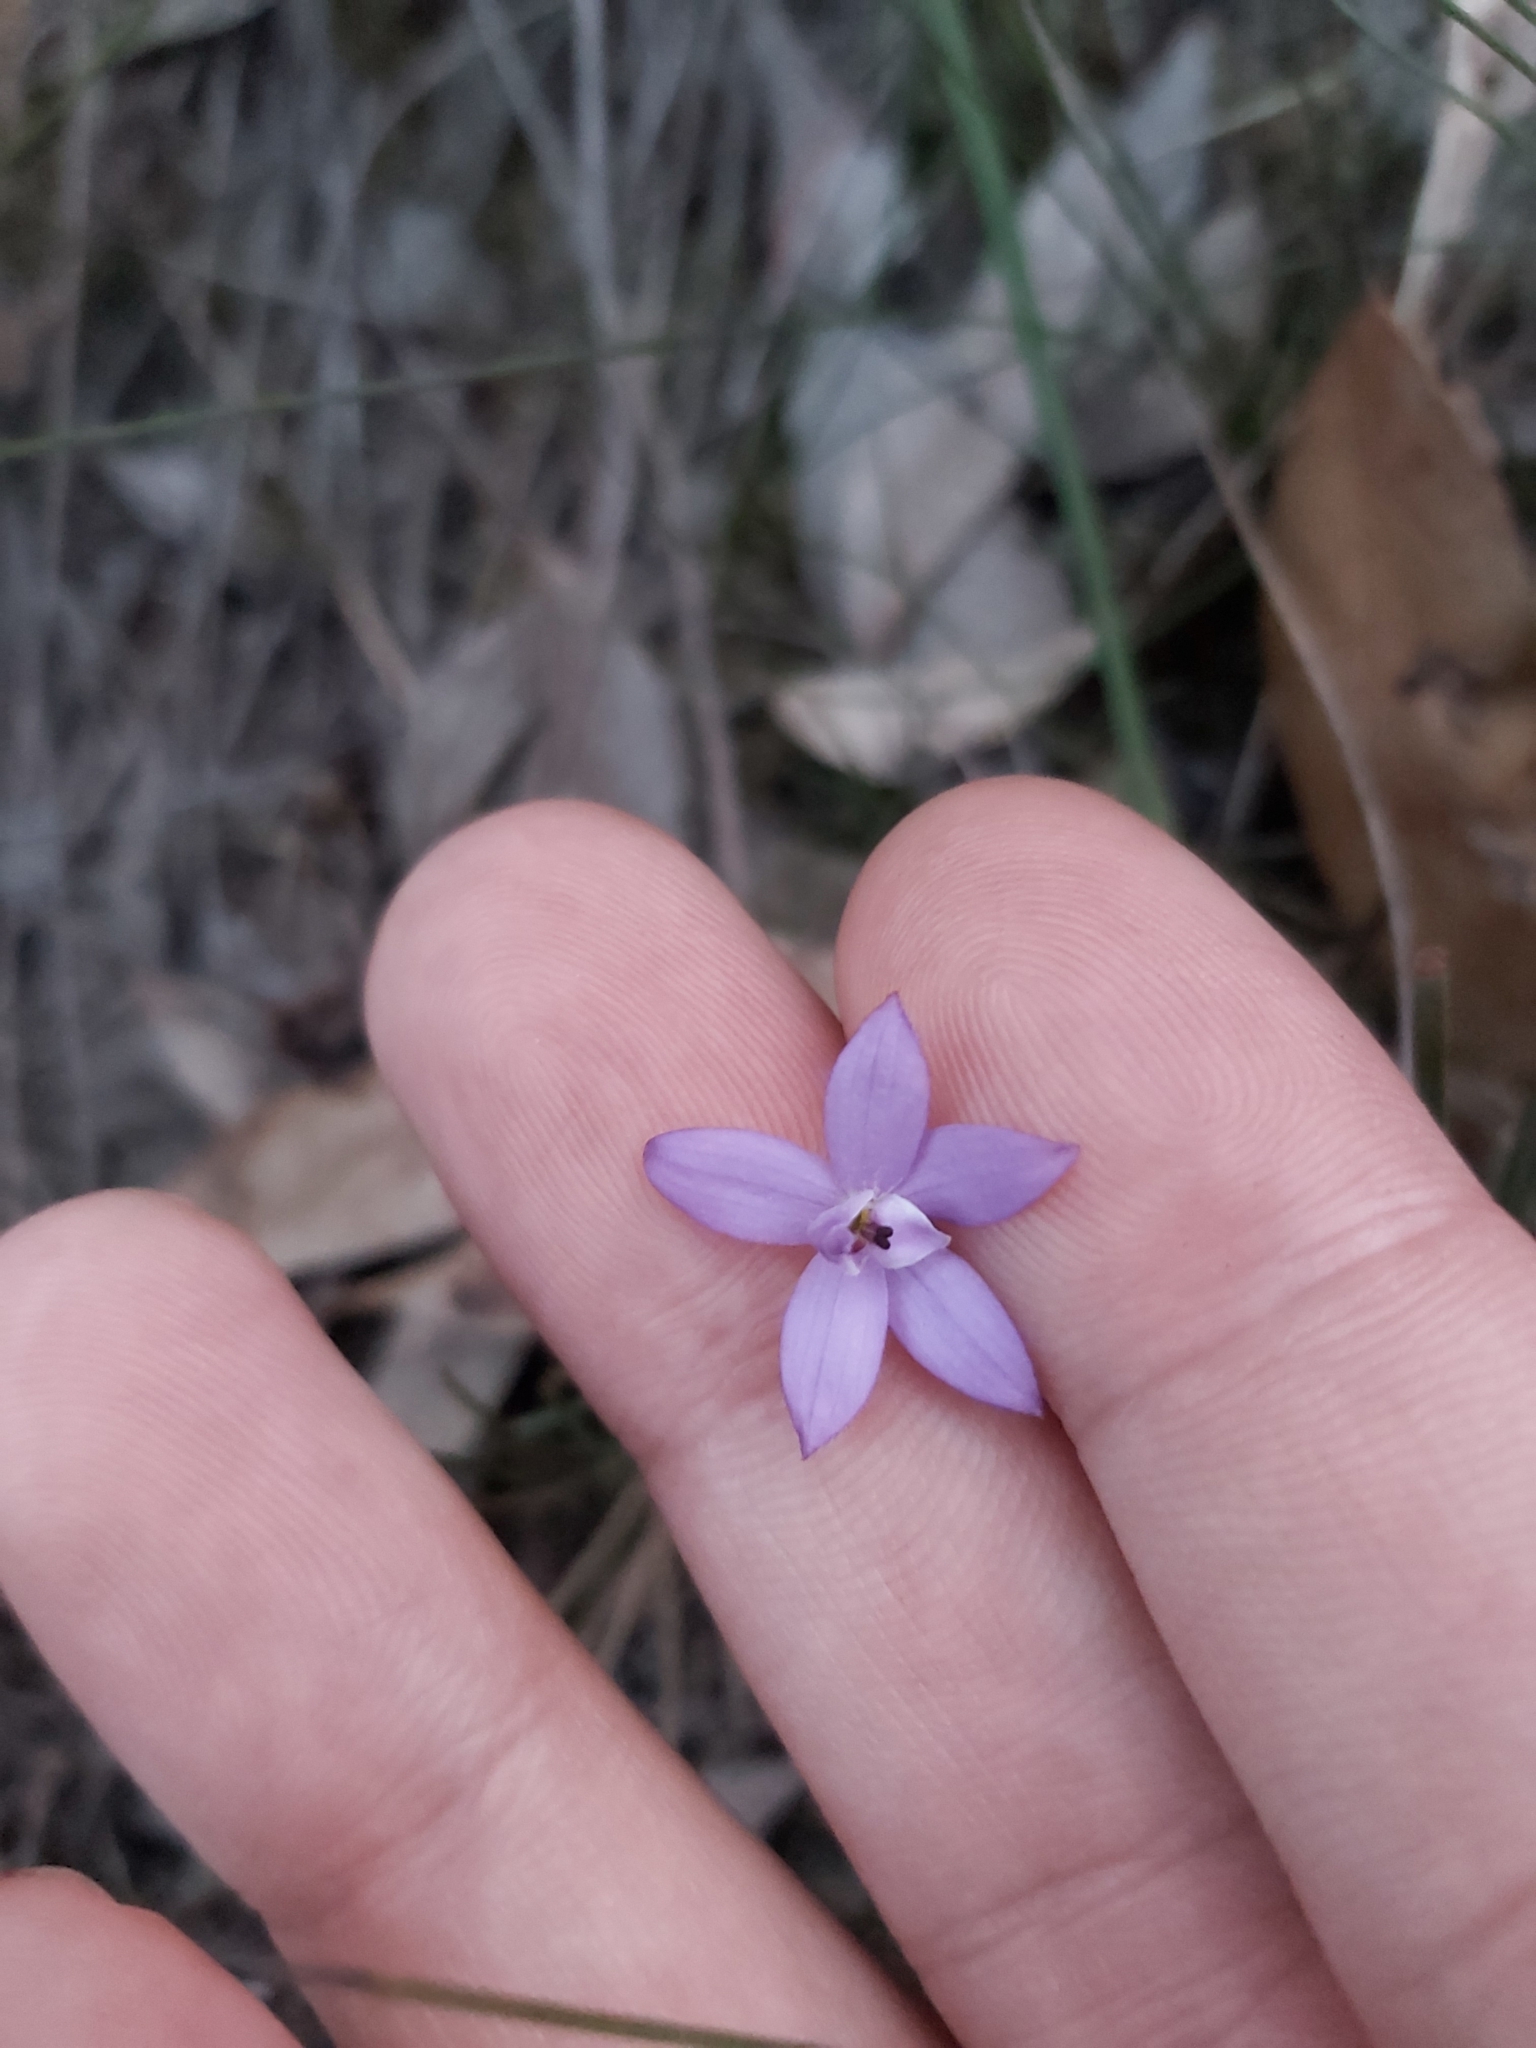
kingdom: Plantae
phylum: Tracheophyta
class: Liliopsida
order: Asparagales
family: Orchidaceae
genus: Caladenia
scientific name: Caladenia minorata
